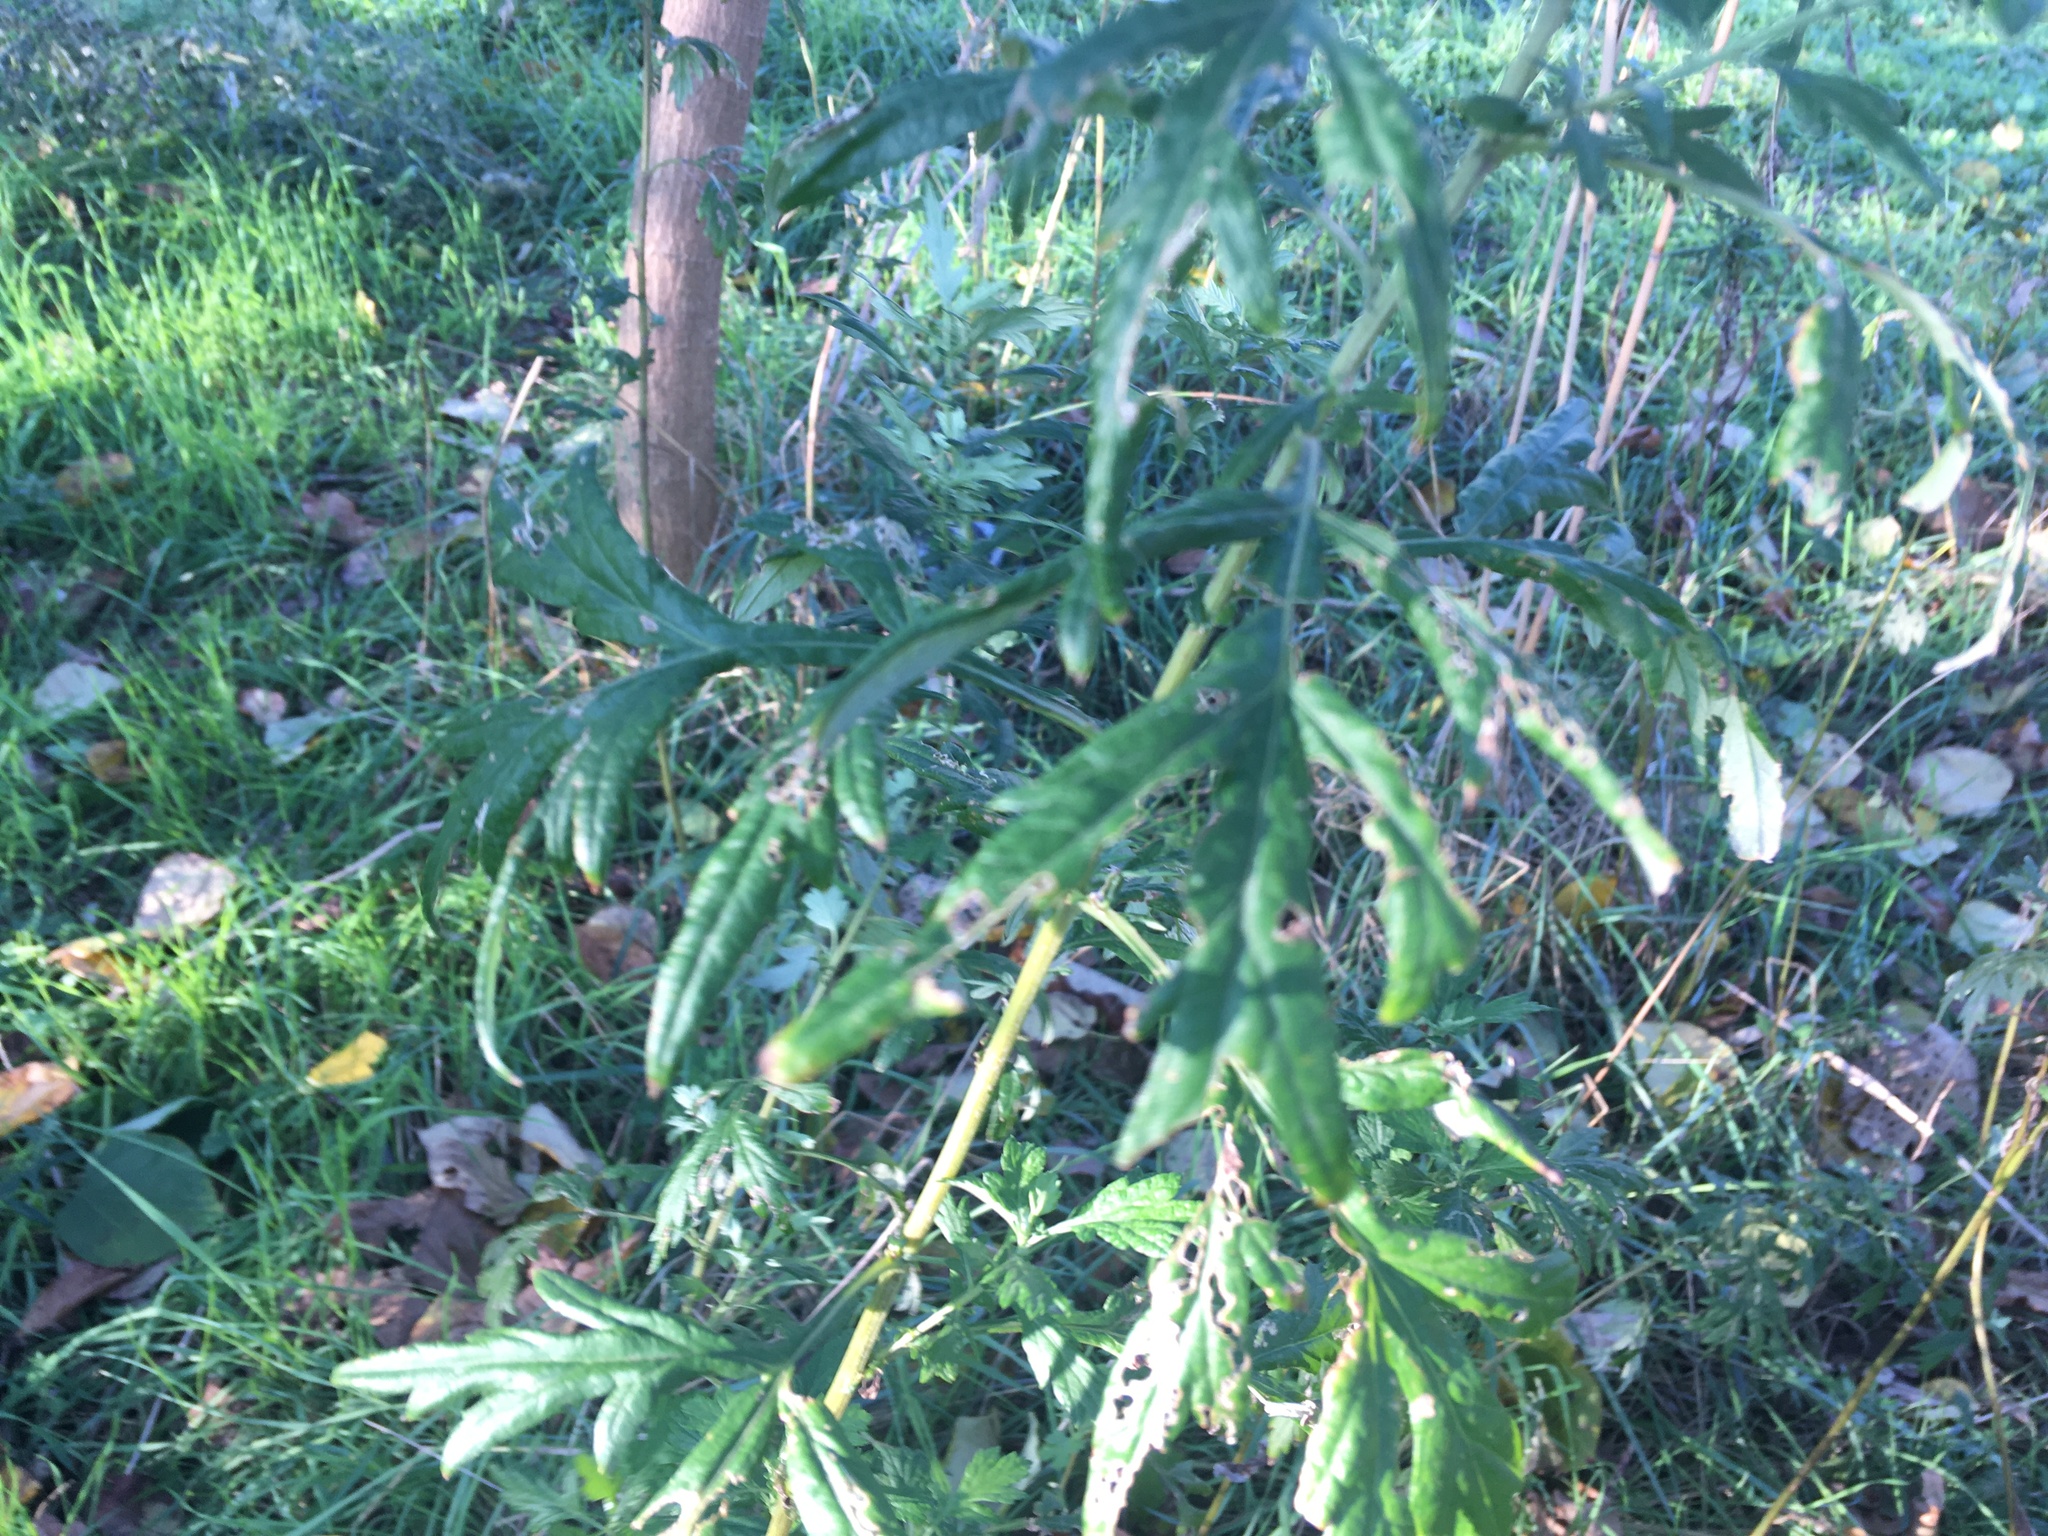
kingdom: Plantae
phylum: Tracheophyta
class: Magnoliopsida
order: Asterales
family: Asteraceae
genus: Artemisia
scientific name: Artemisia vulgaris
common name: Mugwort
